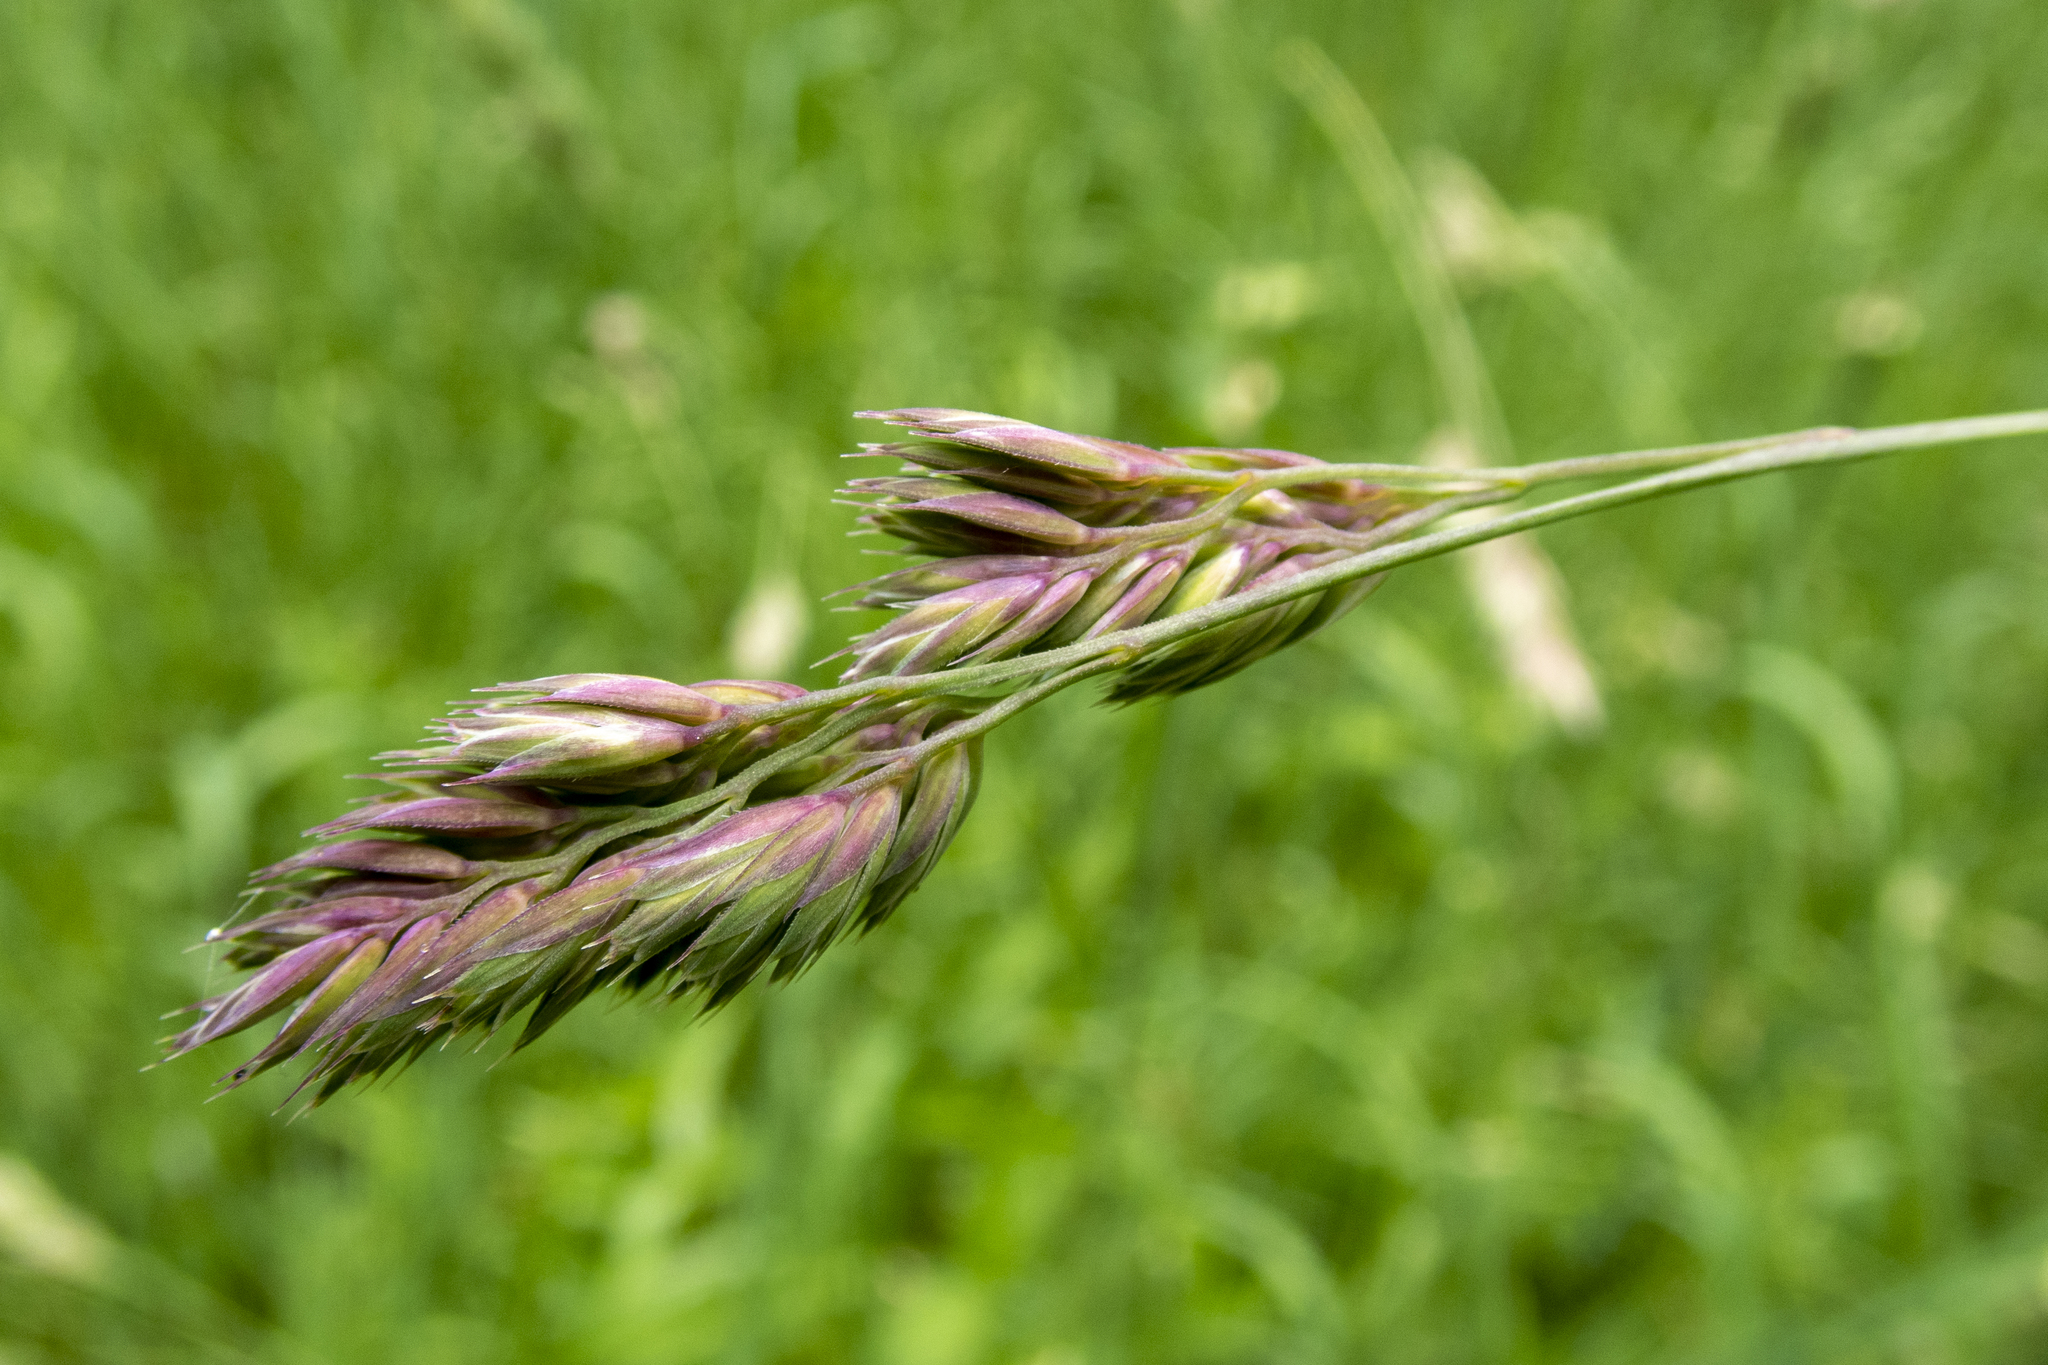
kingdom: Plantae
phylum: Tracheophyta
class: Liliopsida
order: Poales
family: Poaceae
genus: Dactylis
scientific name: Dactylis glomerata
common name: Orchardgrass
